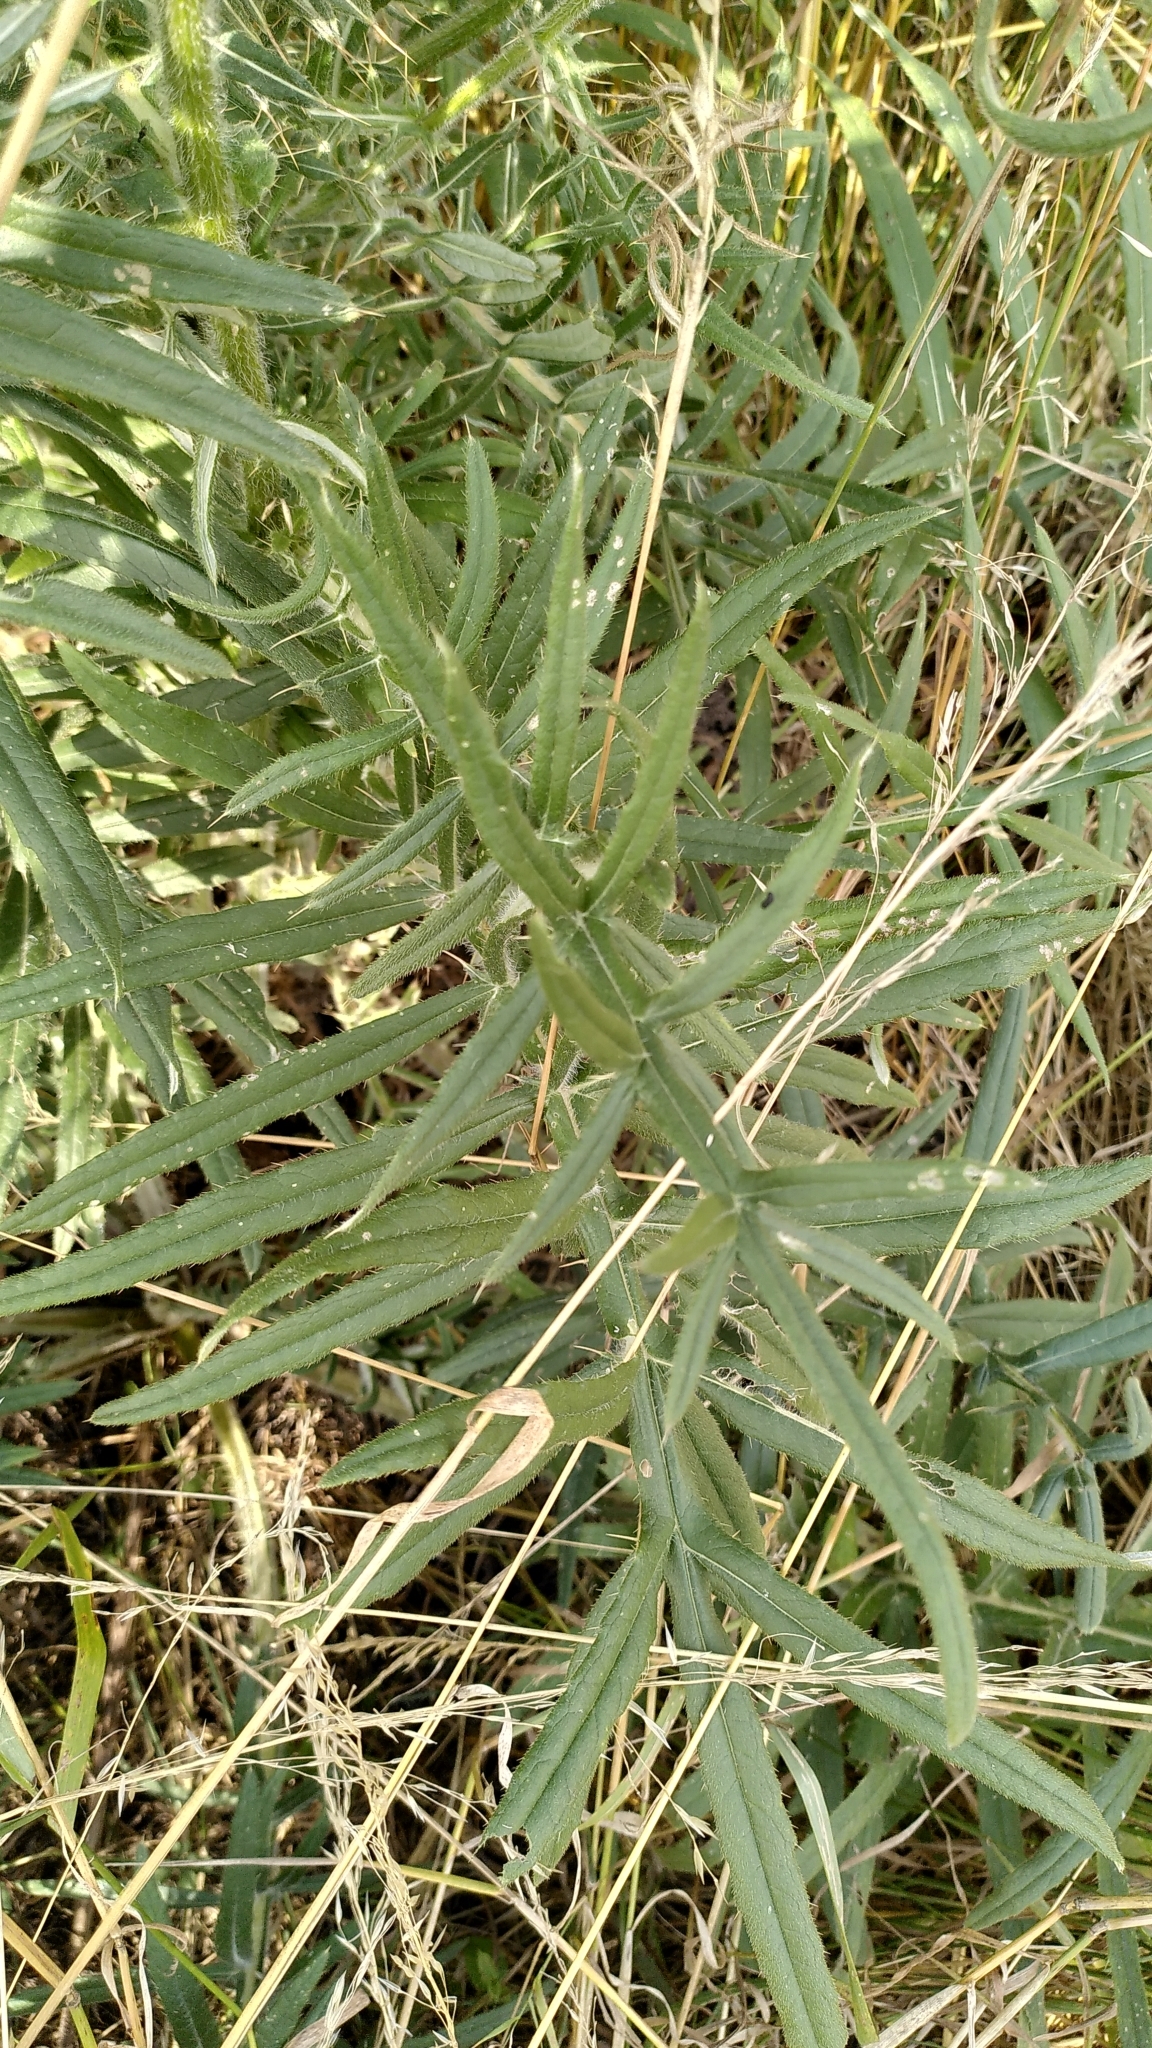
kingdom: Plantae
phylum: Tracheophyta
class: Magnoliopsida
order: Asterales
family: Asteraceae
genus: Lophiolepis
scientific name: Lophiolepis eriophora
